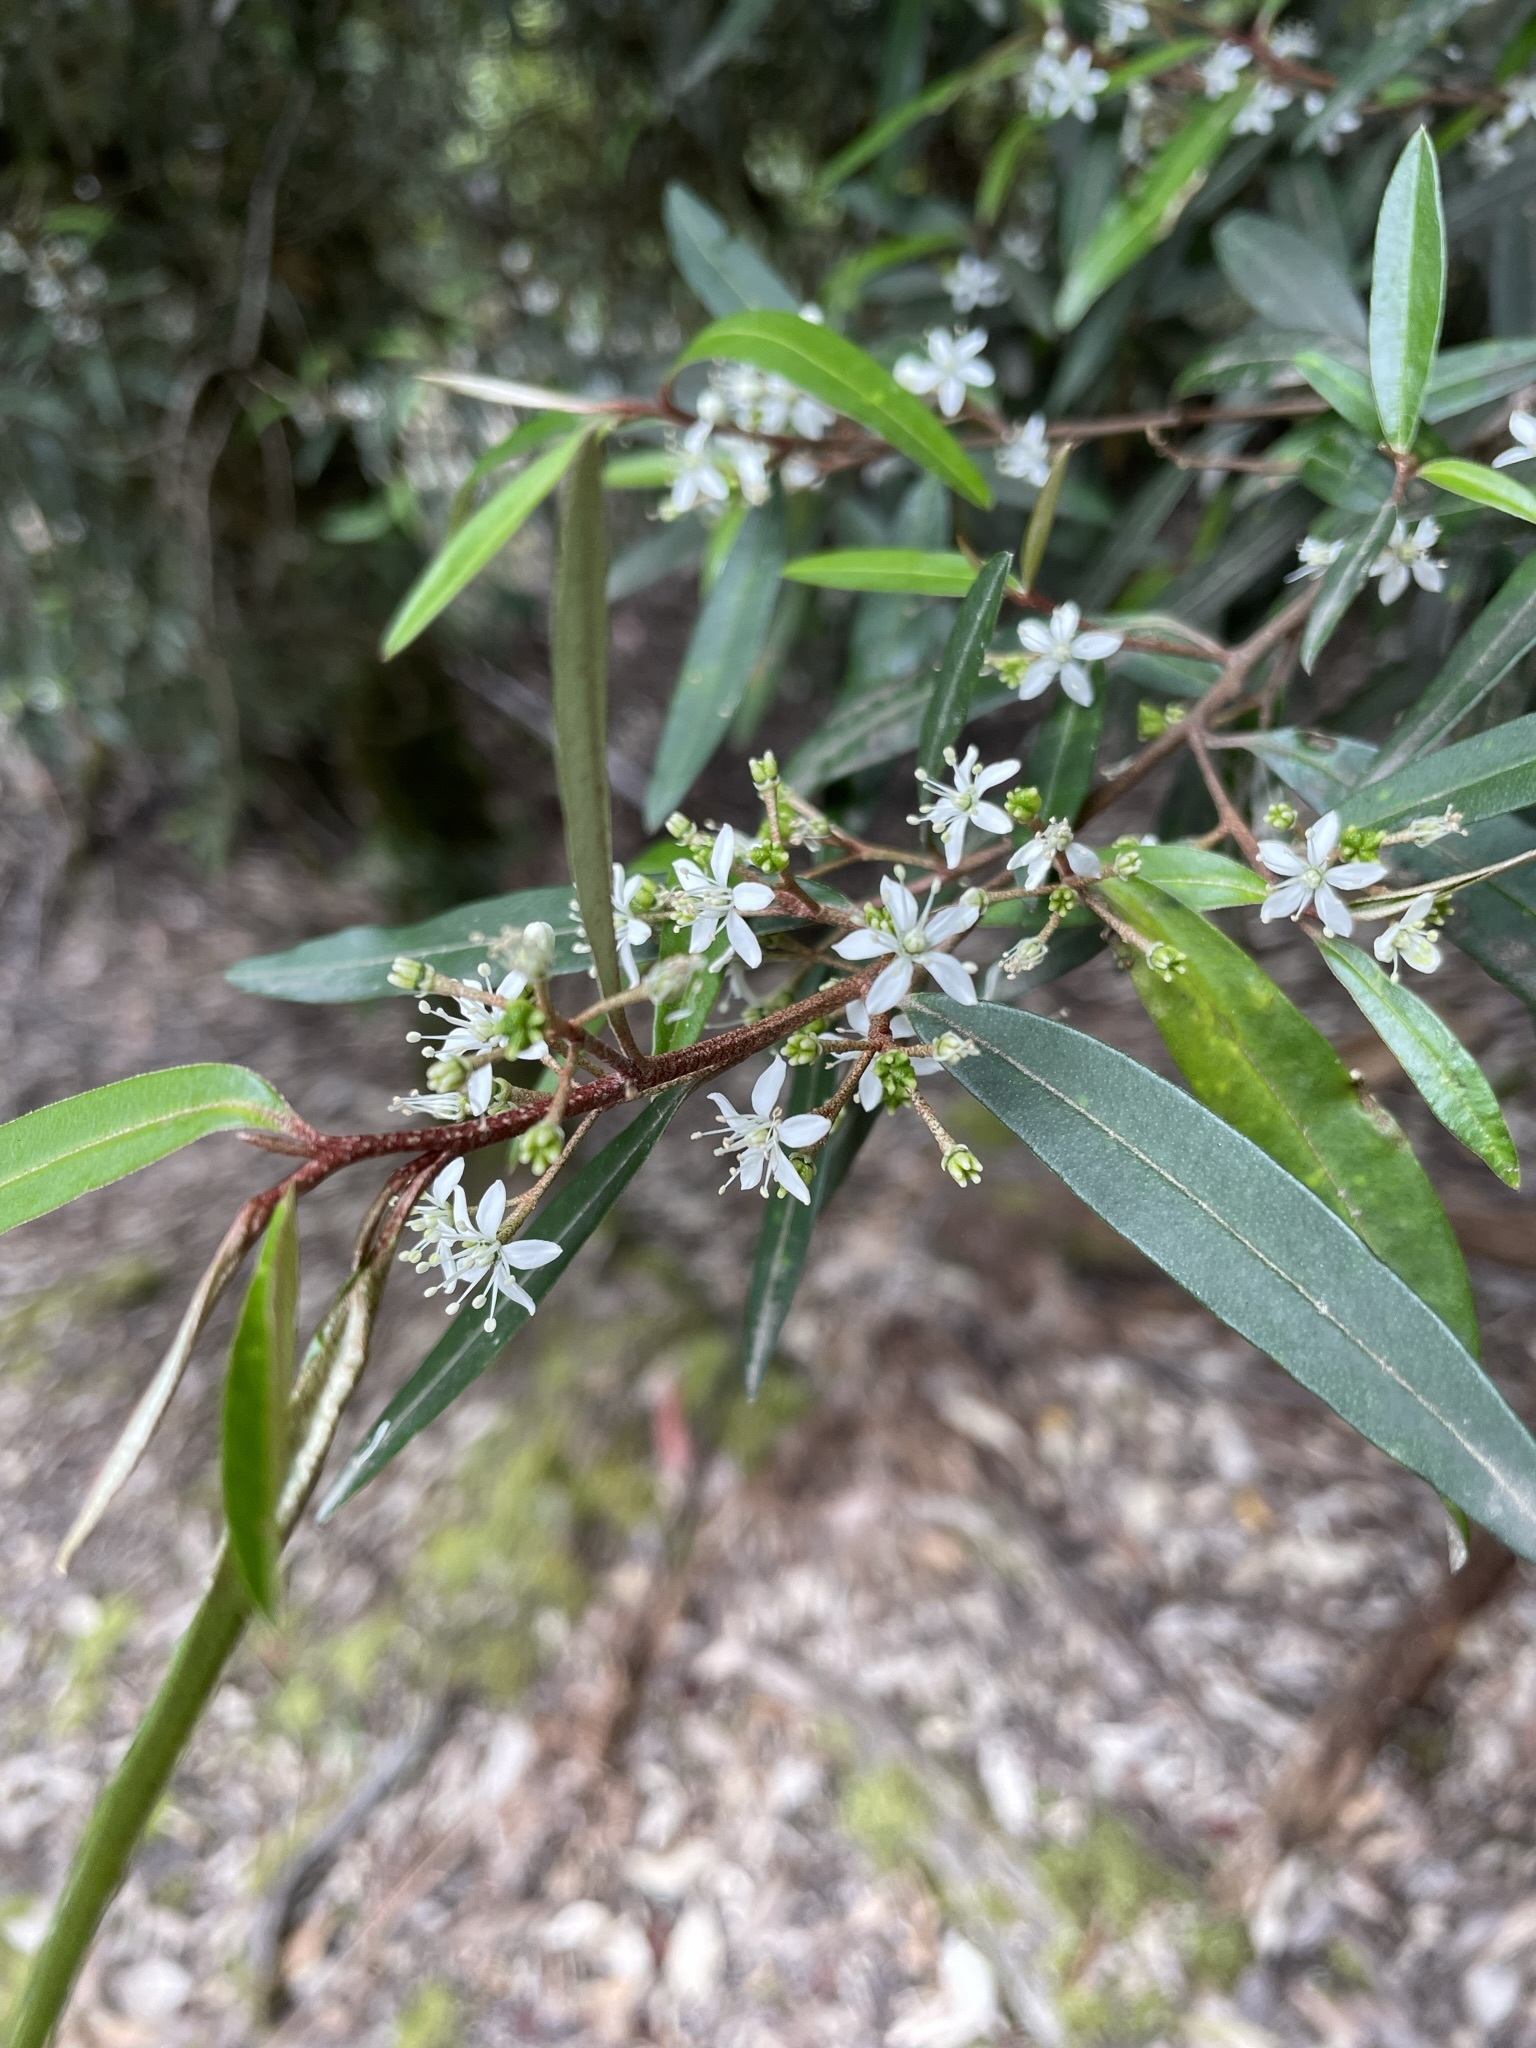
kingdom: Plantae
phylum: Tracheophyta
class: Magnoliopsida
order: Sapindales
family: Rutaceae
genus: Nematolepis
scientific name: Nematolepis squamea
